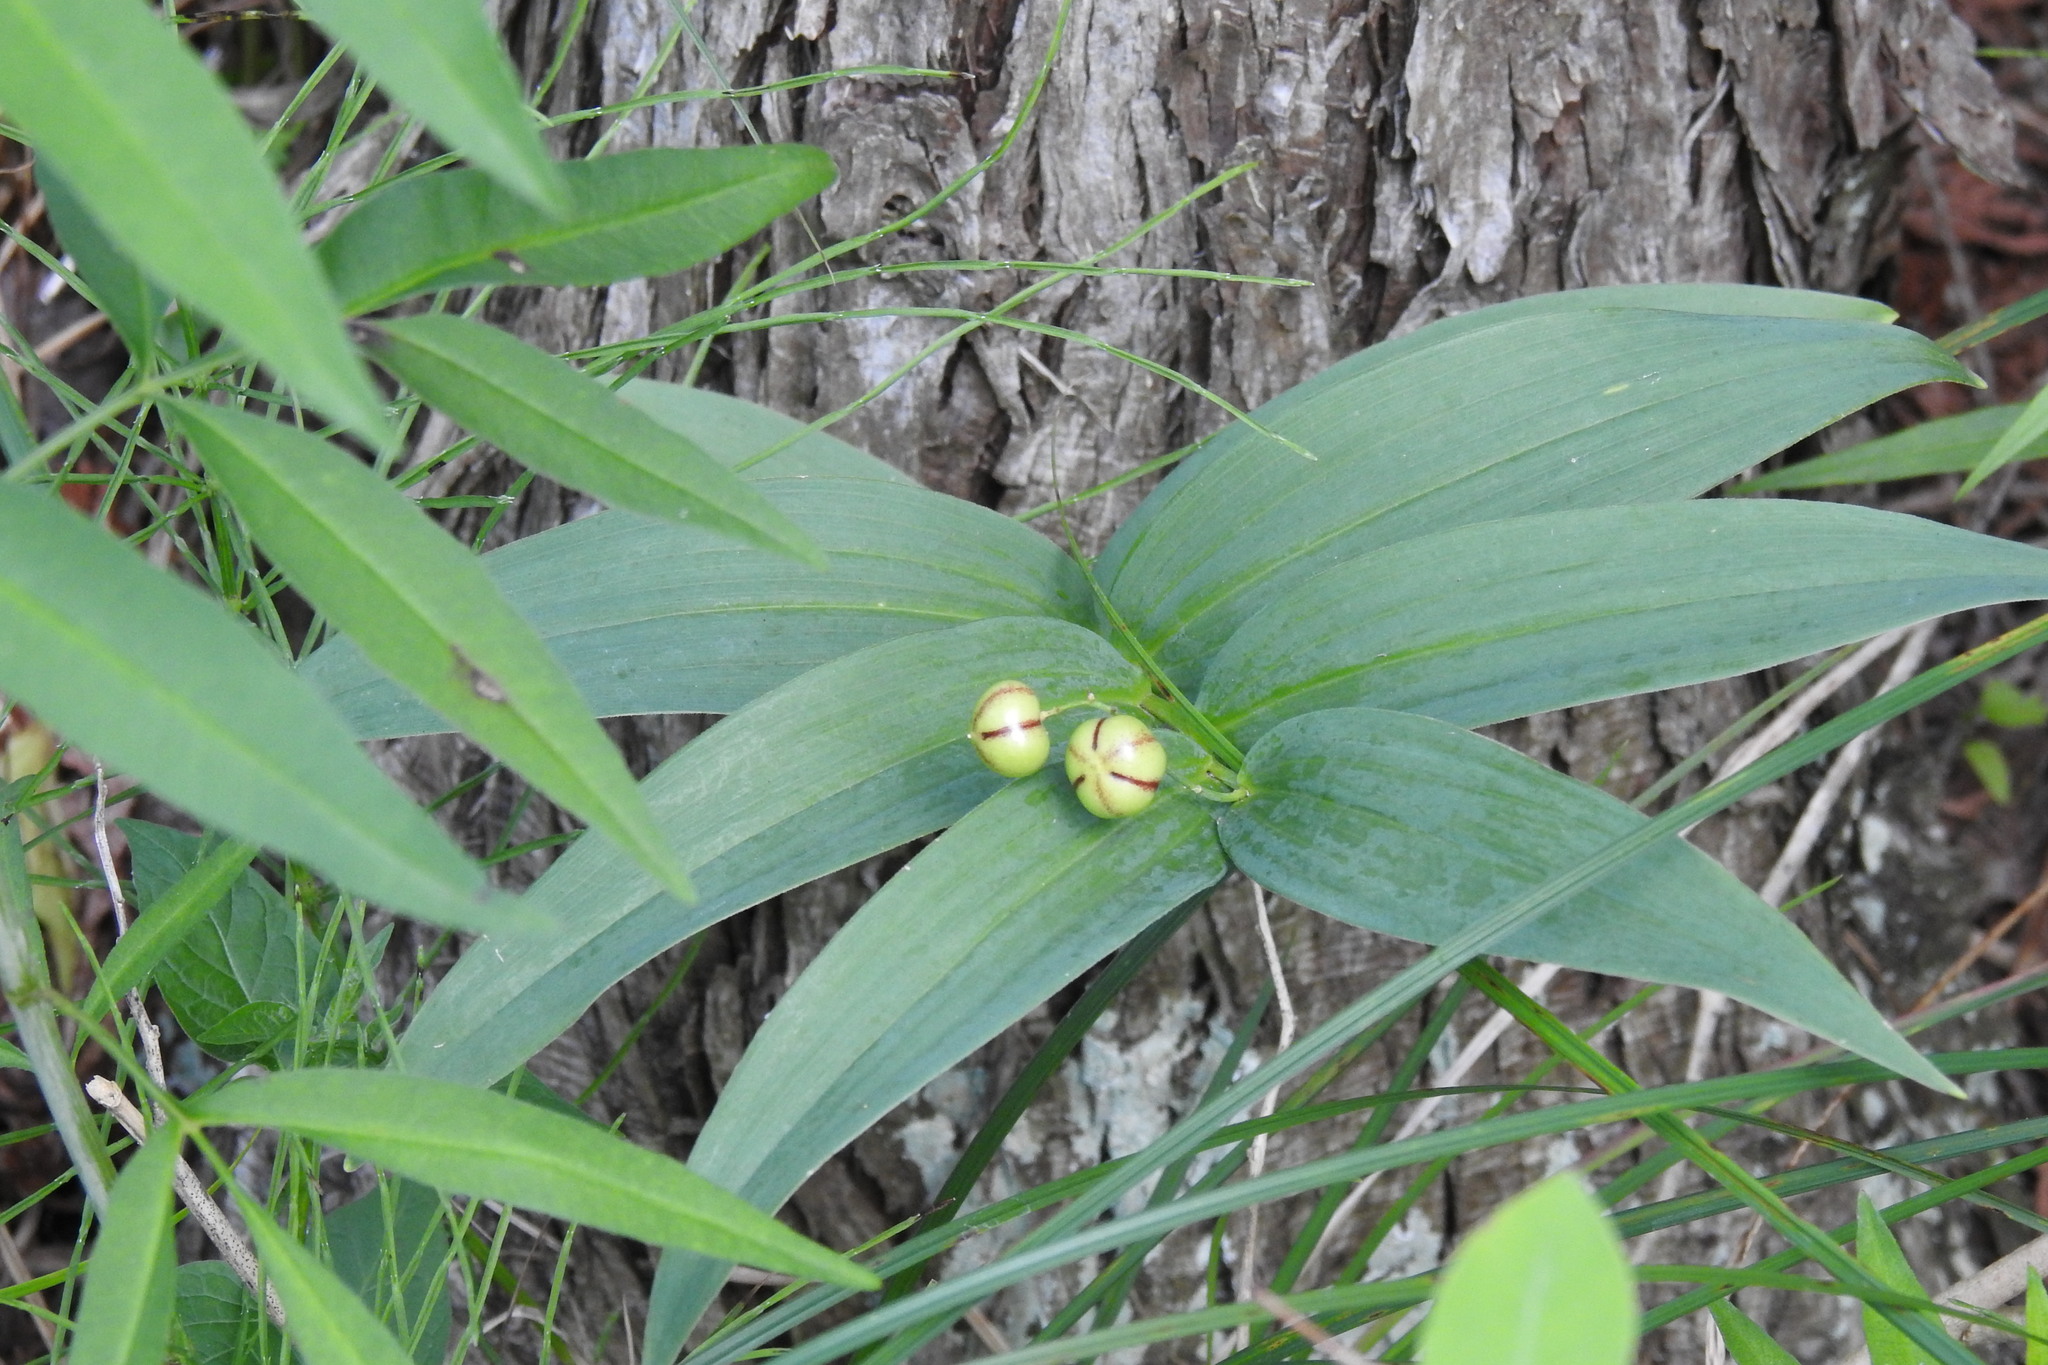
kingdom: Plantae
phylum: Tracheophyta
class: Liliopsida
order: Asparagales
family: Asparagaceae
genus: Maianthemum
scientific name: Maianthemum stellatum
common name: Little false solomon's seal
